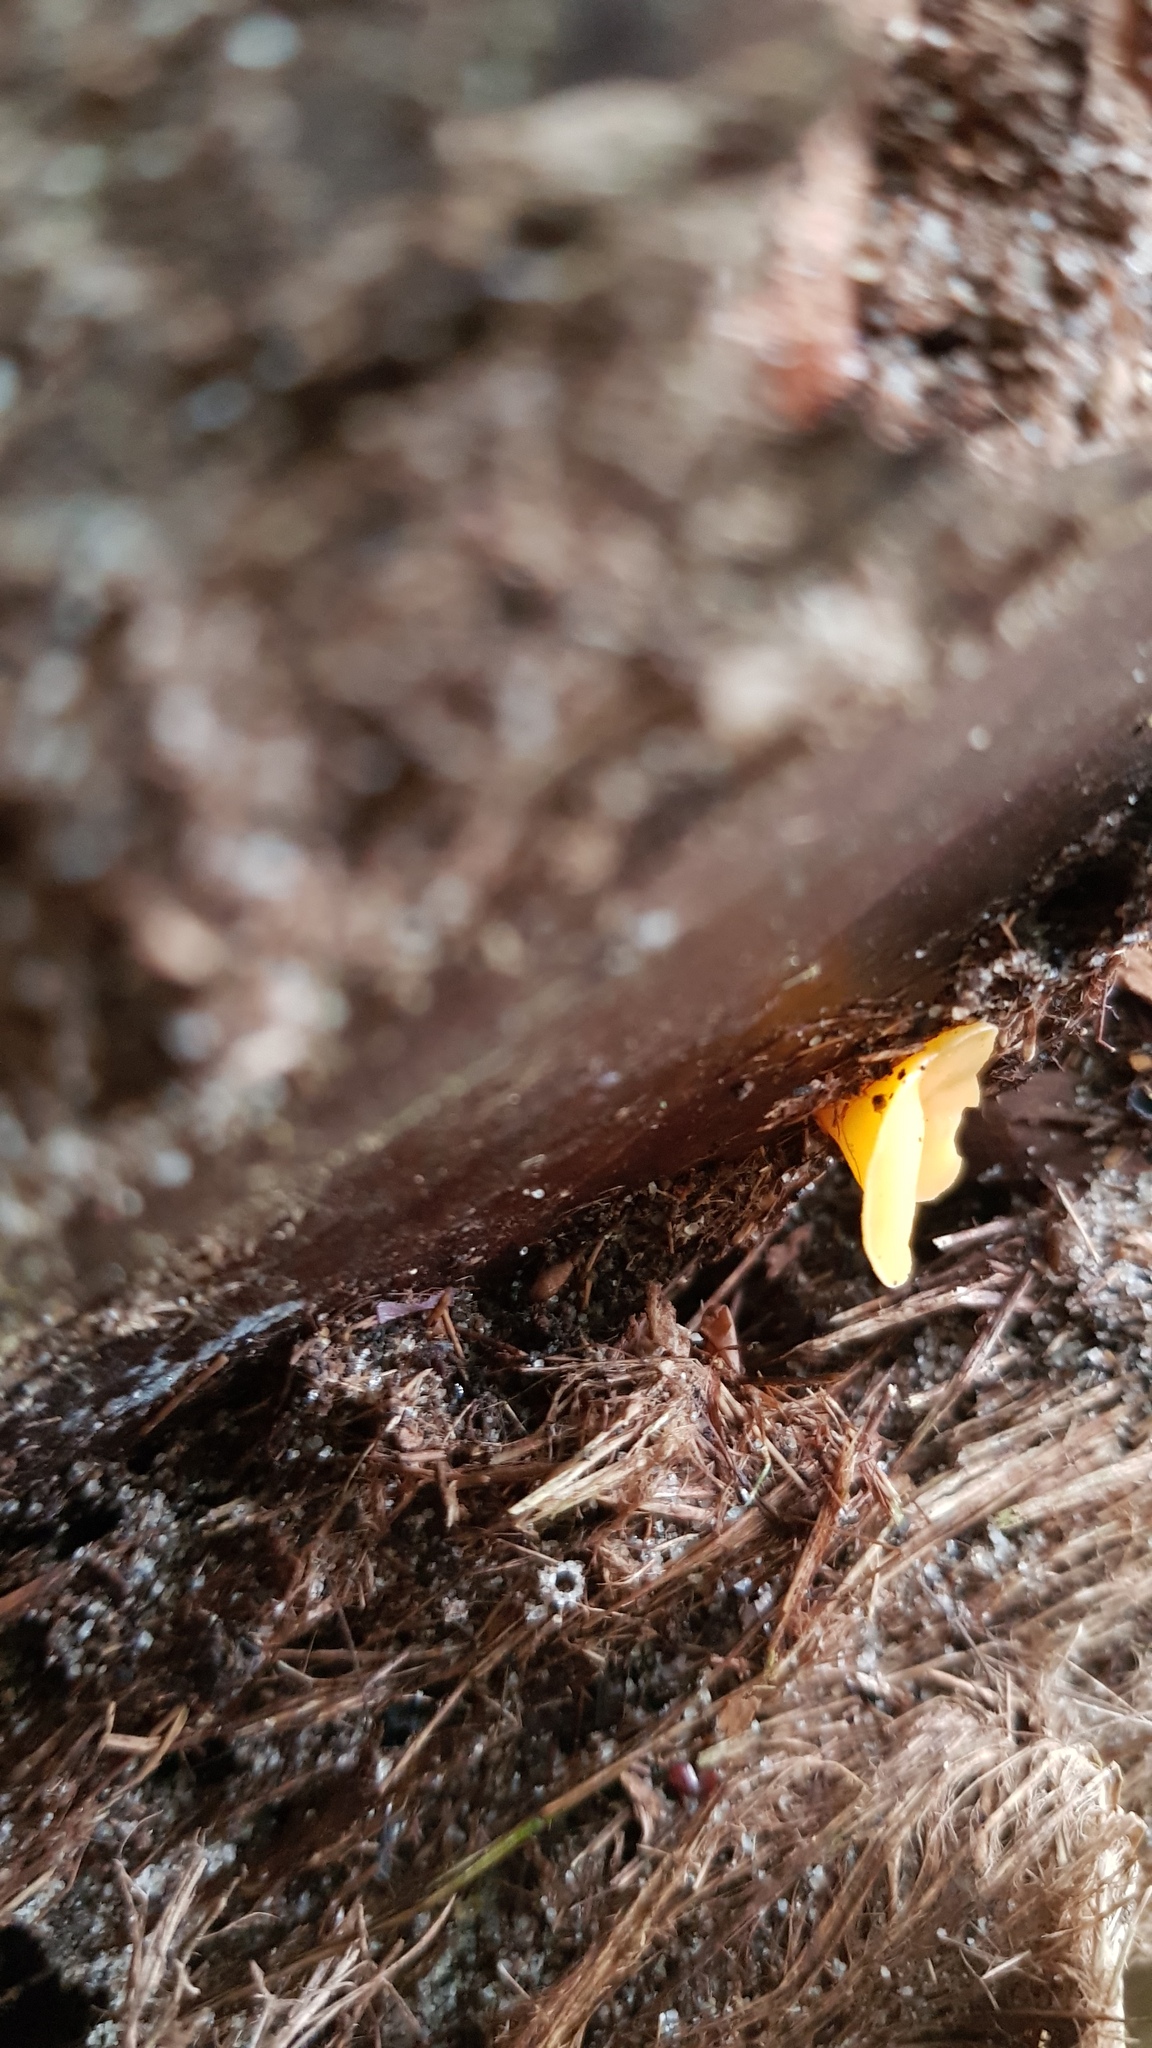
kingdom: Fungi
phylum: Ascomycota
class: Leotiomycetes
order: Helotiales
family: Helotiaceae
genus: Phaeohelotium
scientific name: Phaeohelotium baileyanum
